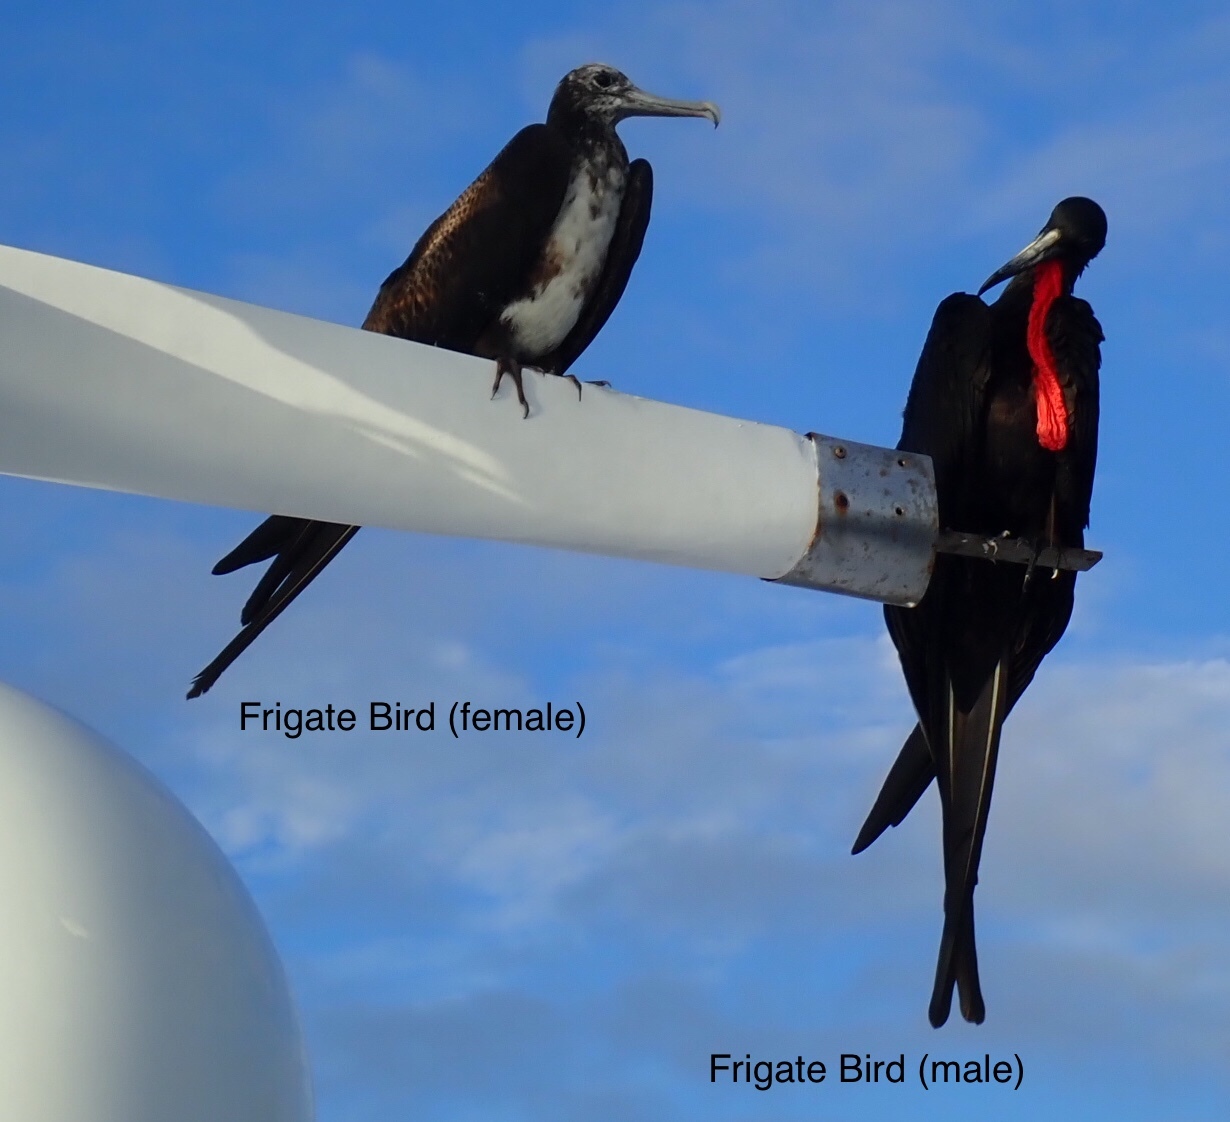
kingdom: Animalia
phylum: Chordata
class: Aves
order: Suliformes
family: Fregatidae
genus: Fregata
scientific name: Fregata magnificens
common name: Magnificent frigatebird
